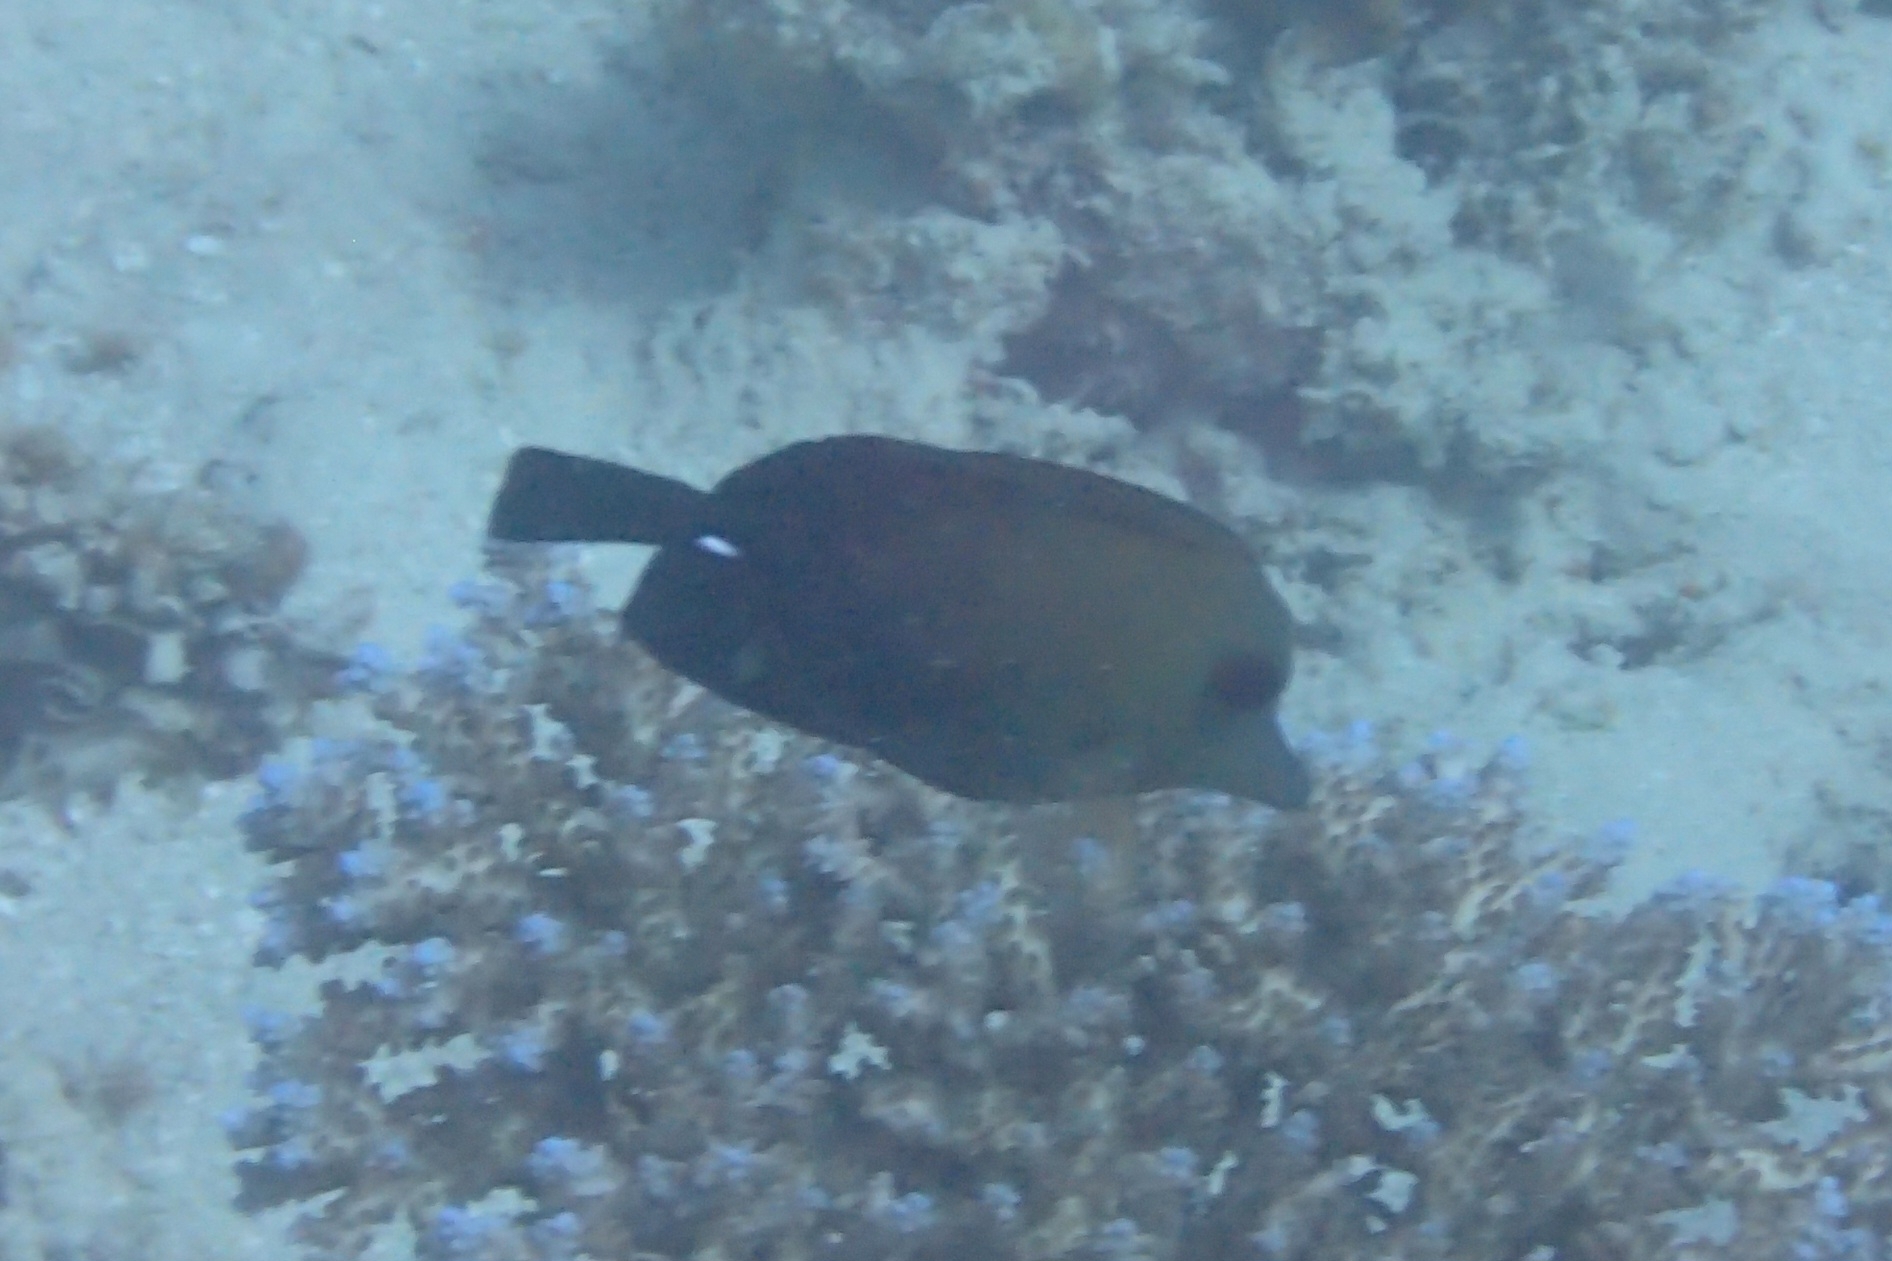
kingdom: Animalia
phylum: Chordata
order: Perciformes
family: Acanthuridae
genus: Zebrasoma
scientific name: Zebrasoma scopas
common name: Twotone tang
